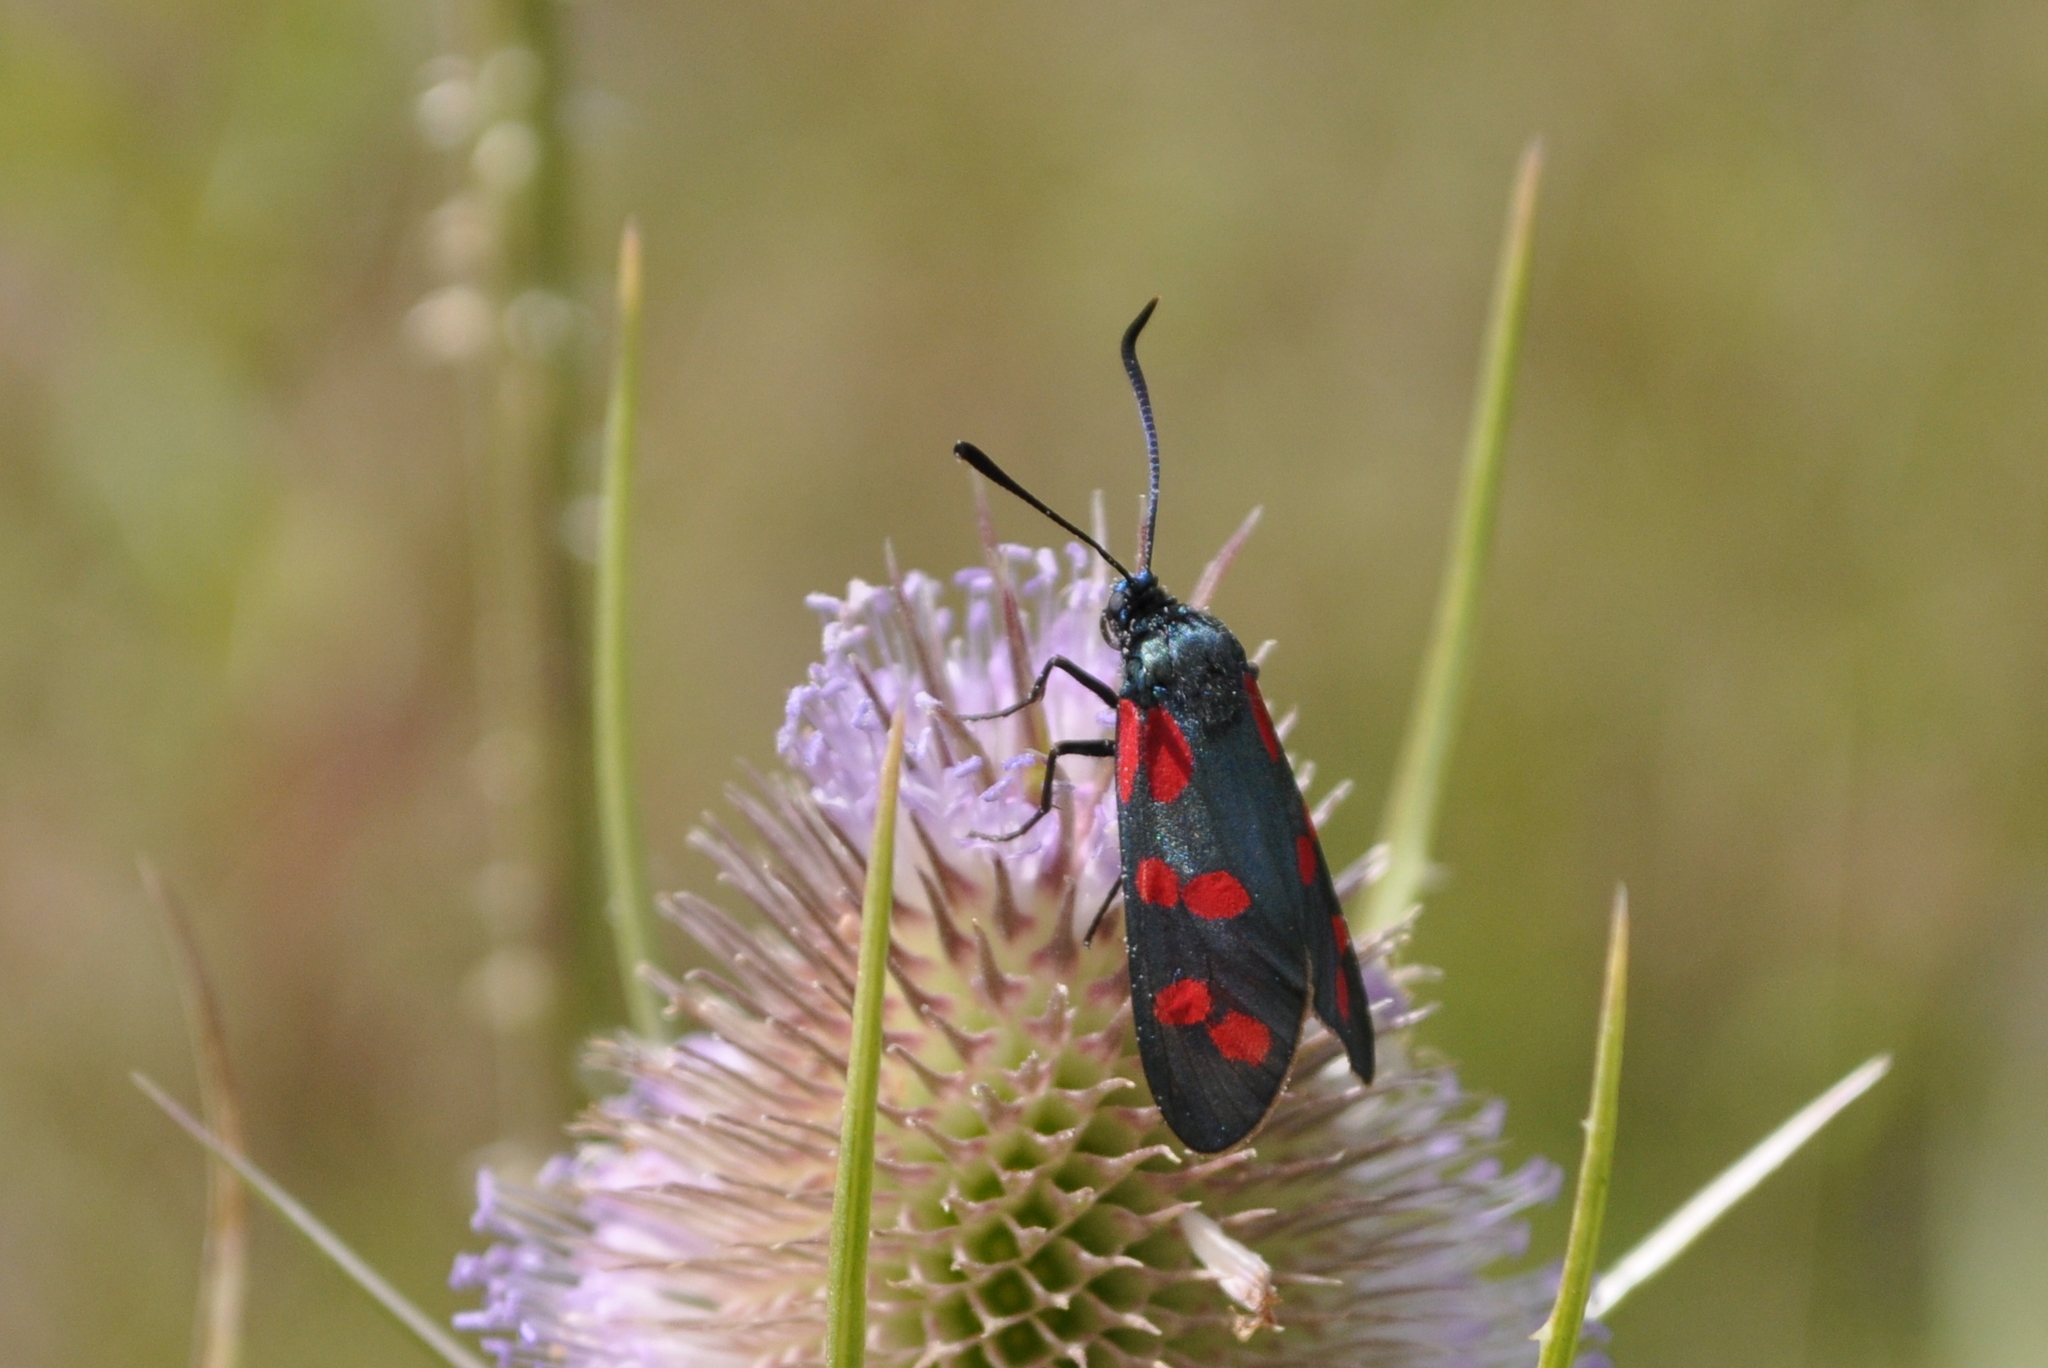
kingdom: Animalia
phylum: Arthropoda
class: Insecta
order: Lepidoptera
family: Zygaenidae
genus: Zygaena
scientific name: Zygaena filipendulae
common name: Six-spot burnet
